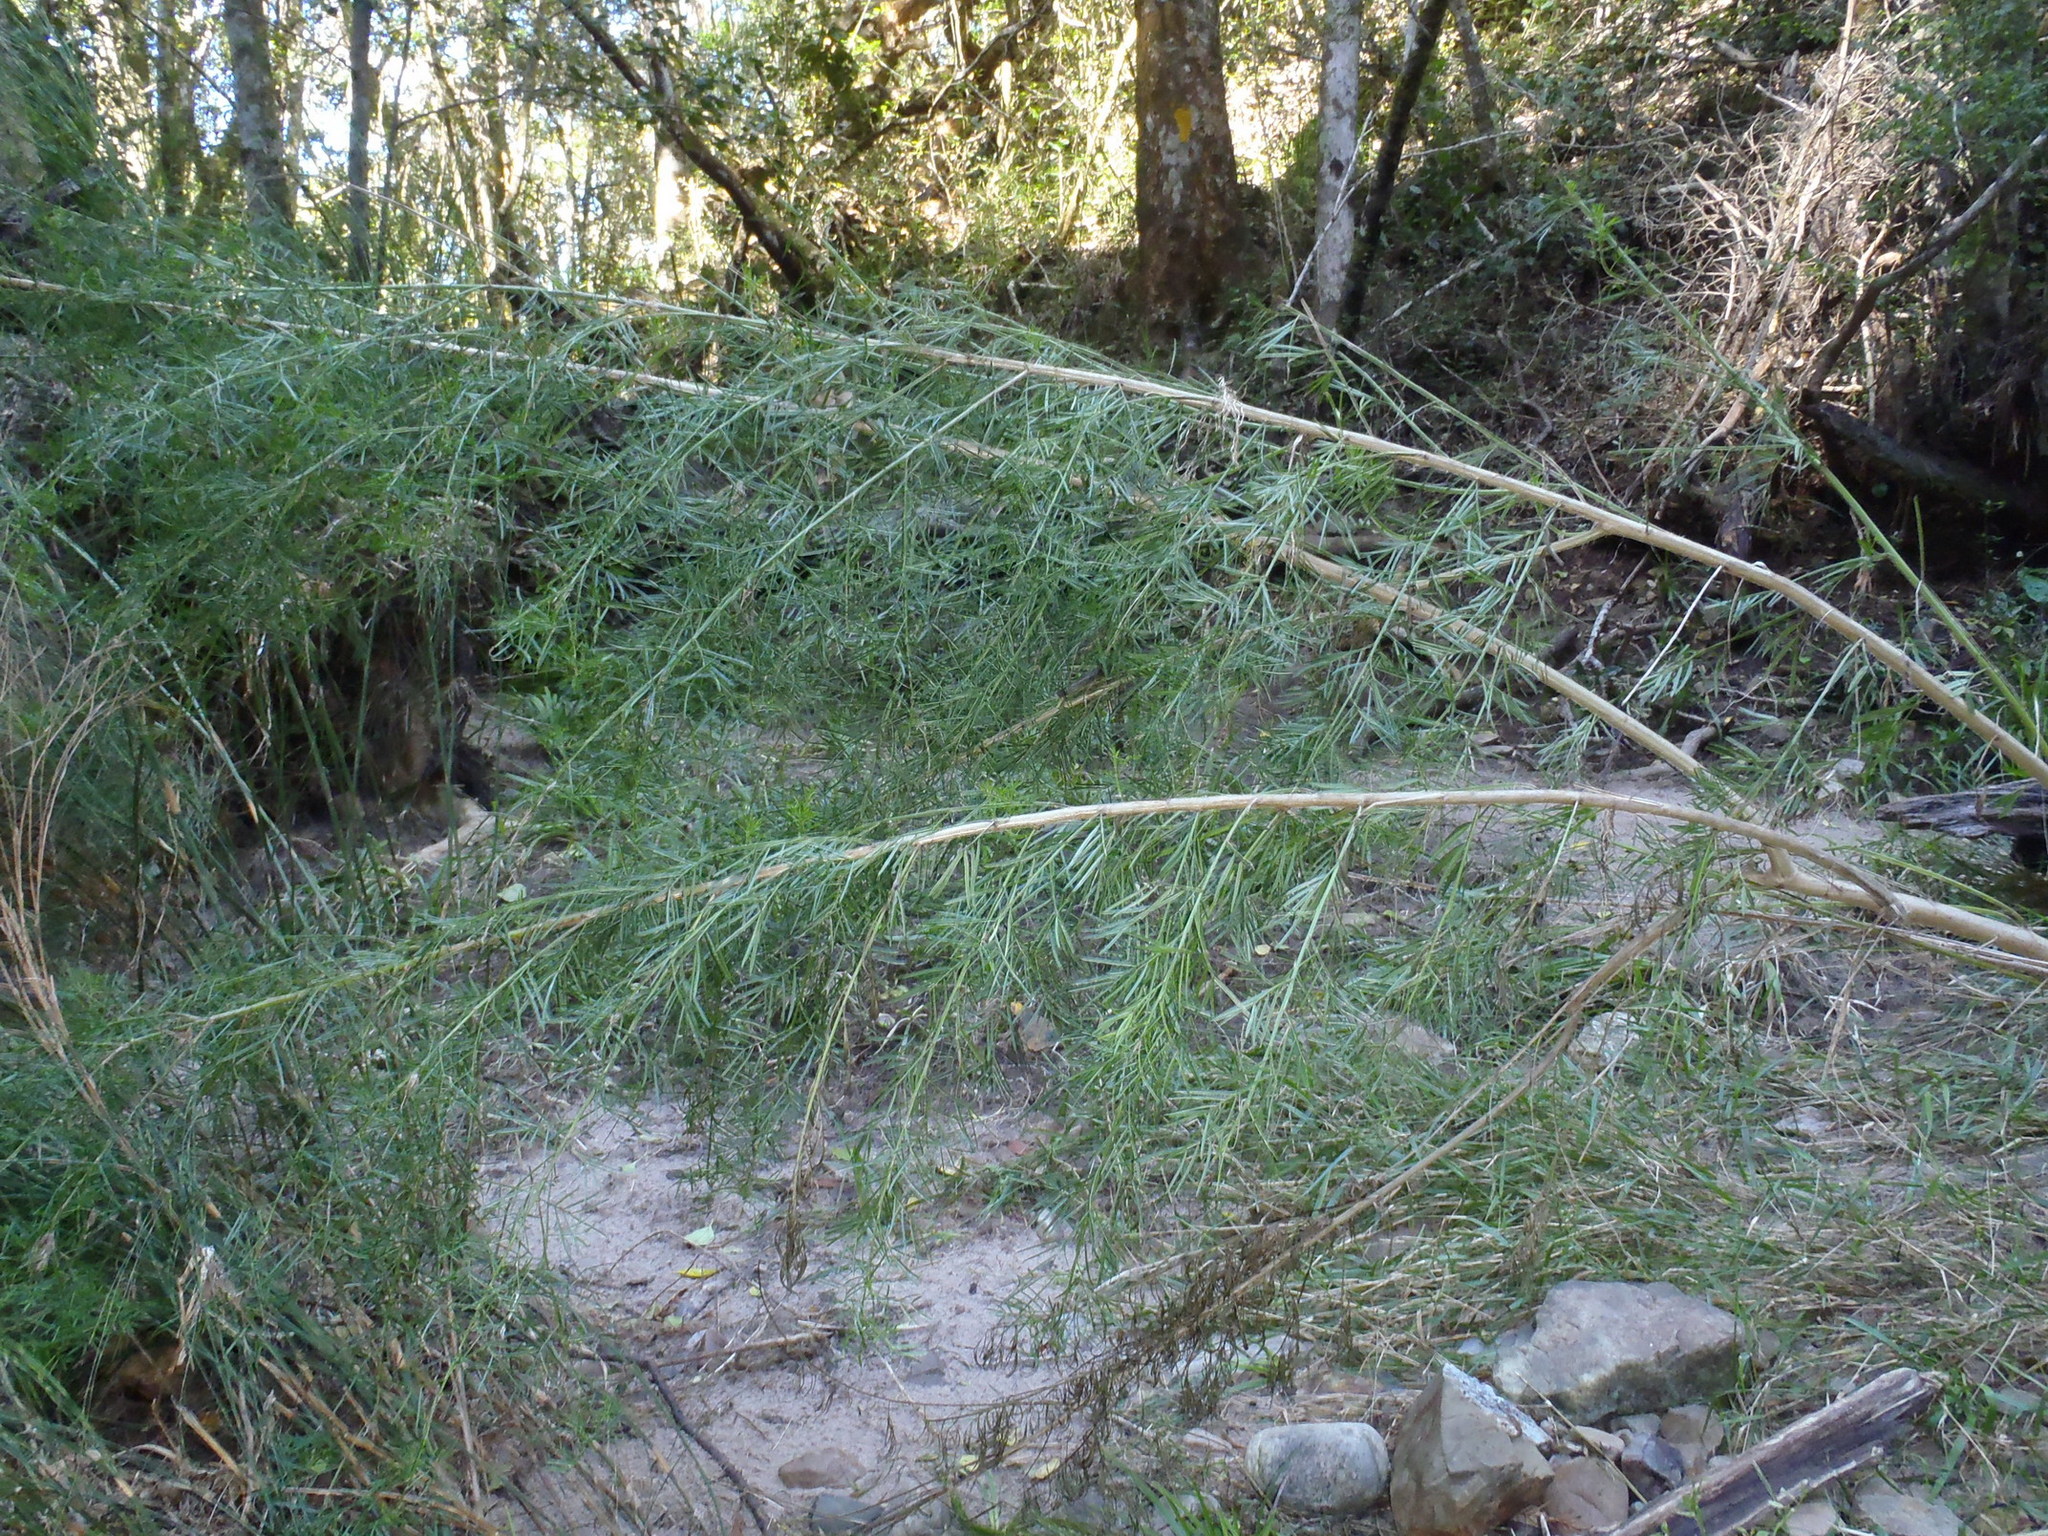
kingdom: Plantae
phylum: Tracheophyta
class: Magnoliopsida
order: Fabales
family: Fabaceae
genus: Psoralea
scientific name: Psoralea affinis
